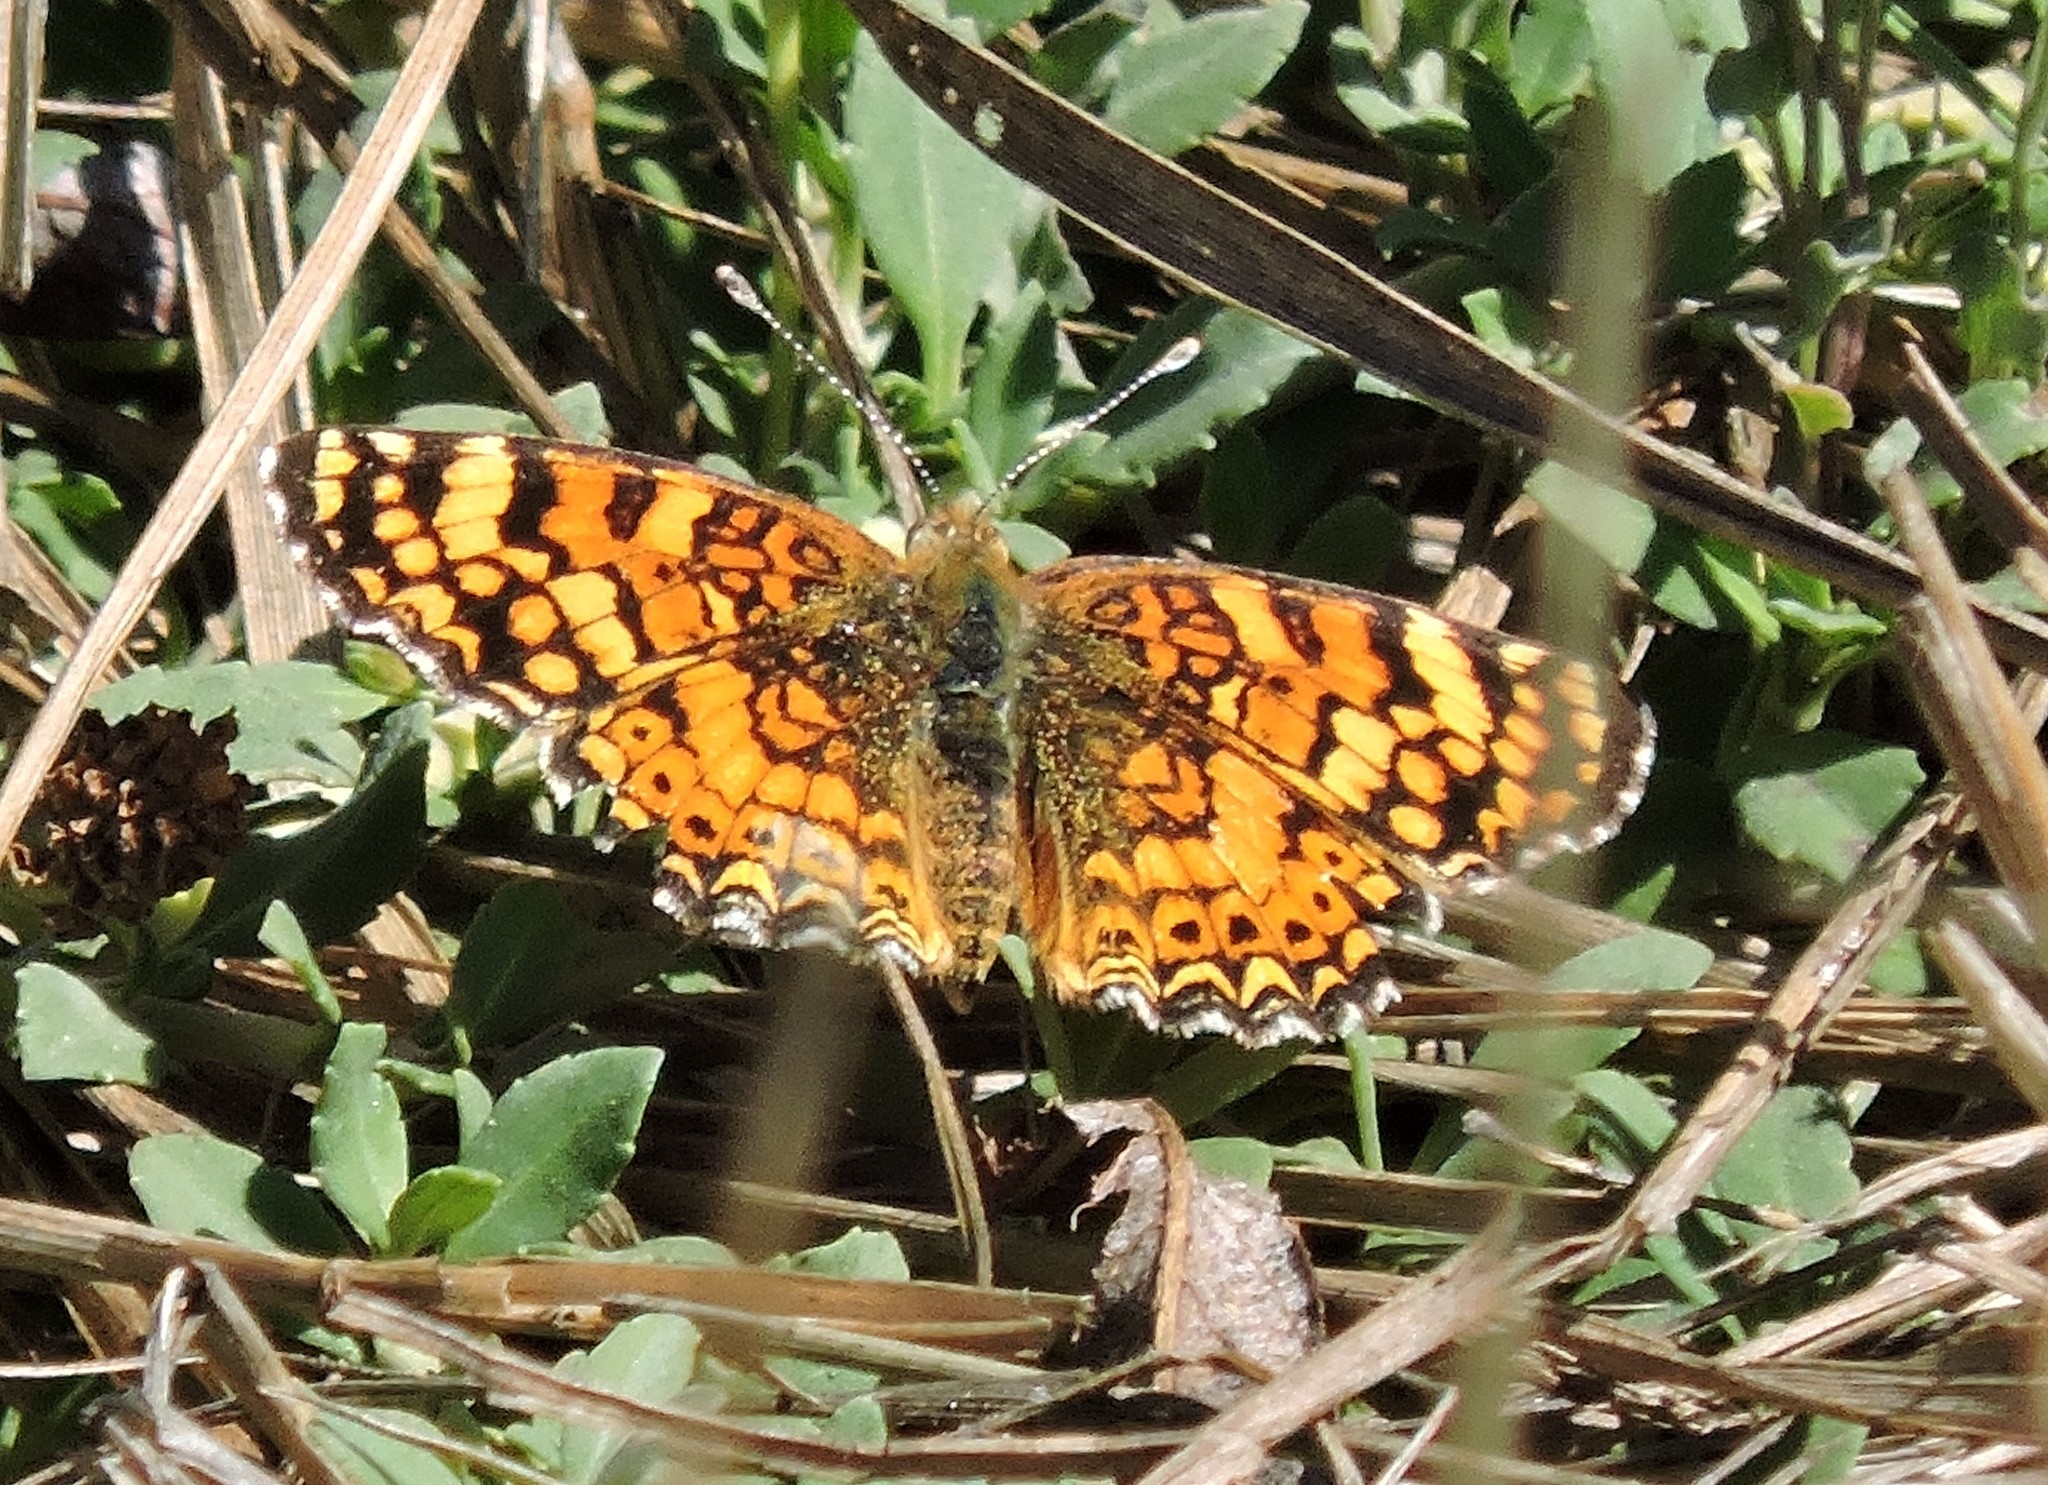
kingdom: Animalia
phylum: Arthropoda
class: Insecta
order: Lepidoptera
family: Nymphalidae
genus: Eresia
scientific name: Eresia aveyrona
